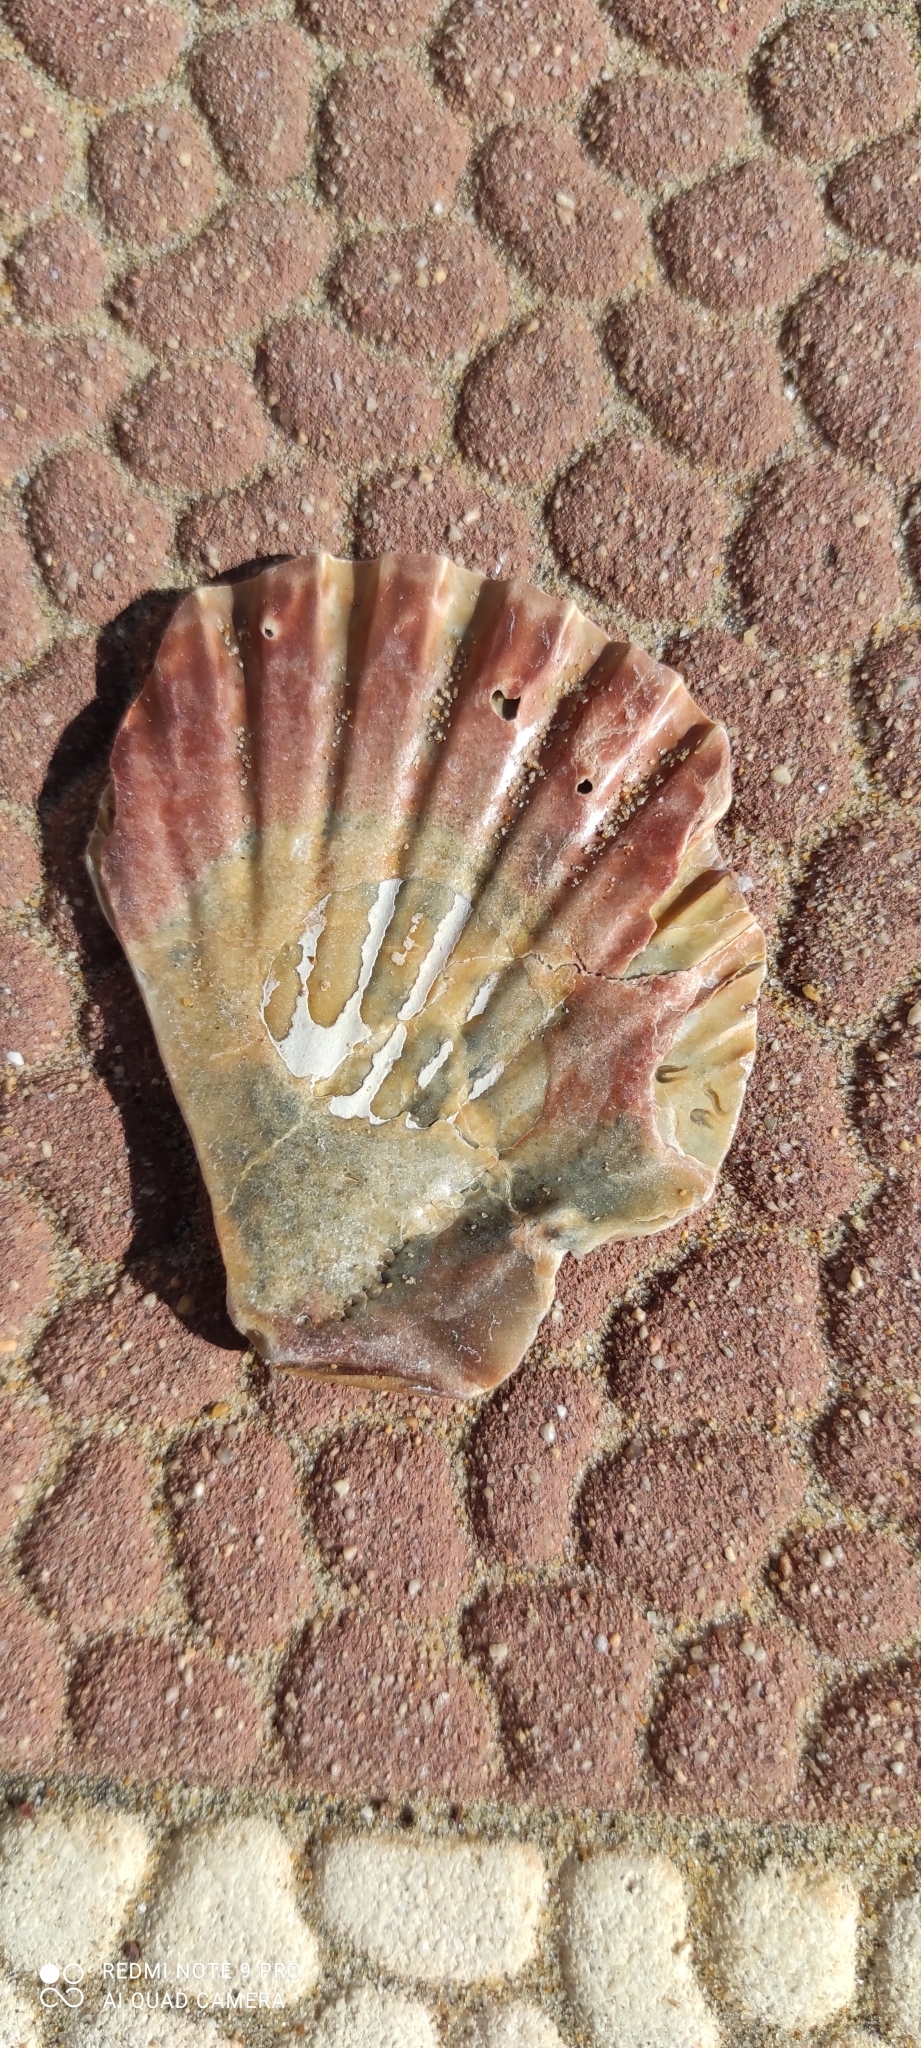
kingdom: Animalia
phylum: Mollusca
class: Bivalvia
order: Pectinida
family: Pectinidae
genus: Pecten
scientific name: Pecten maximus
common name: Great scallop
